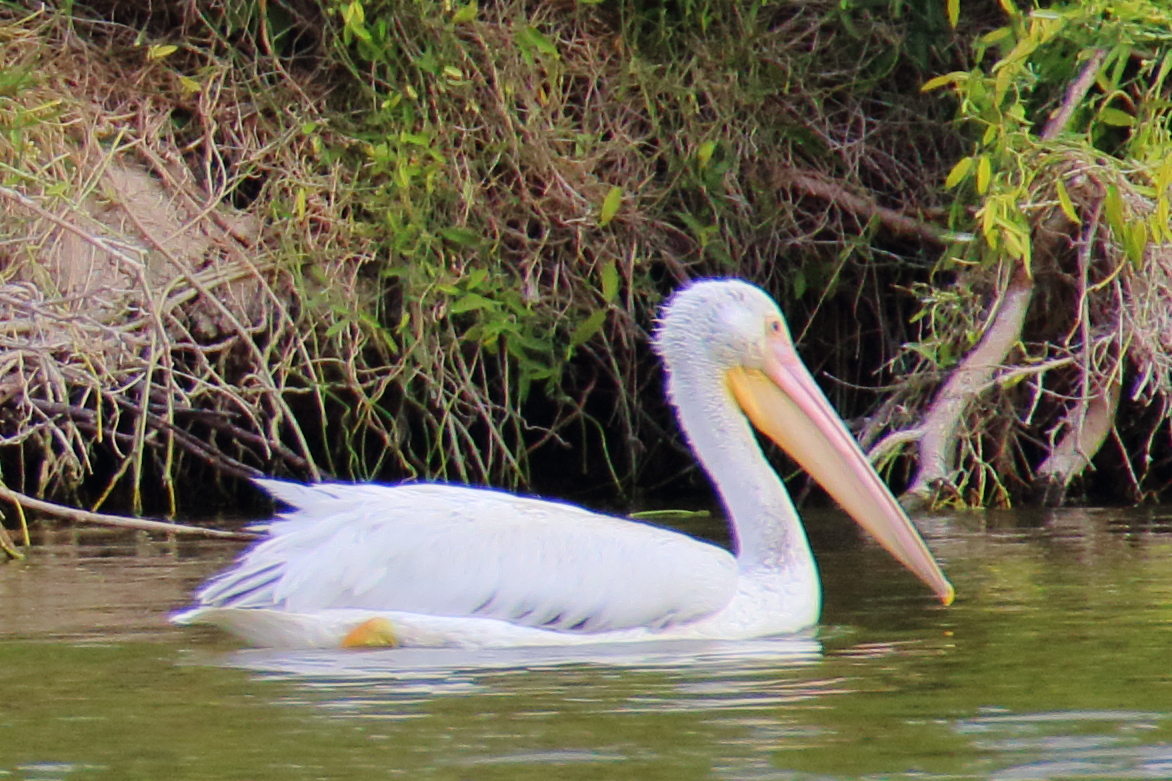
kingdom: Animalia
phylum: Chordata
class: Aves
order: Pelecaniformes
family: Pelecanidae
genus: Pelecanus
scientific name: Pelecanus erythrorhynchos
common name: American white pelican
